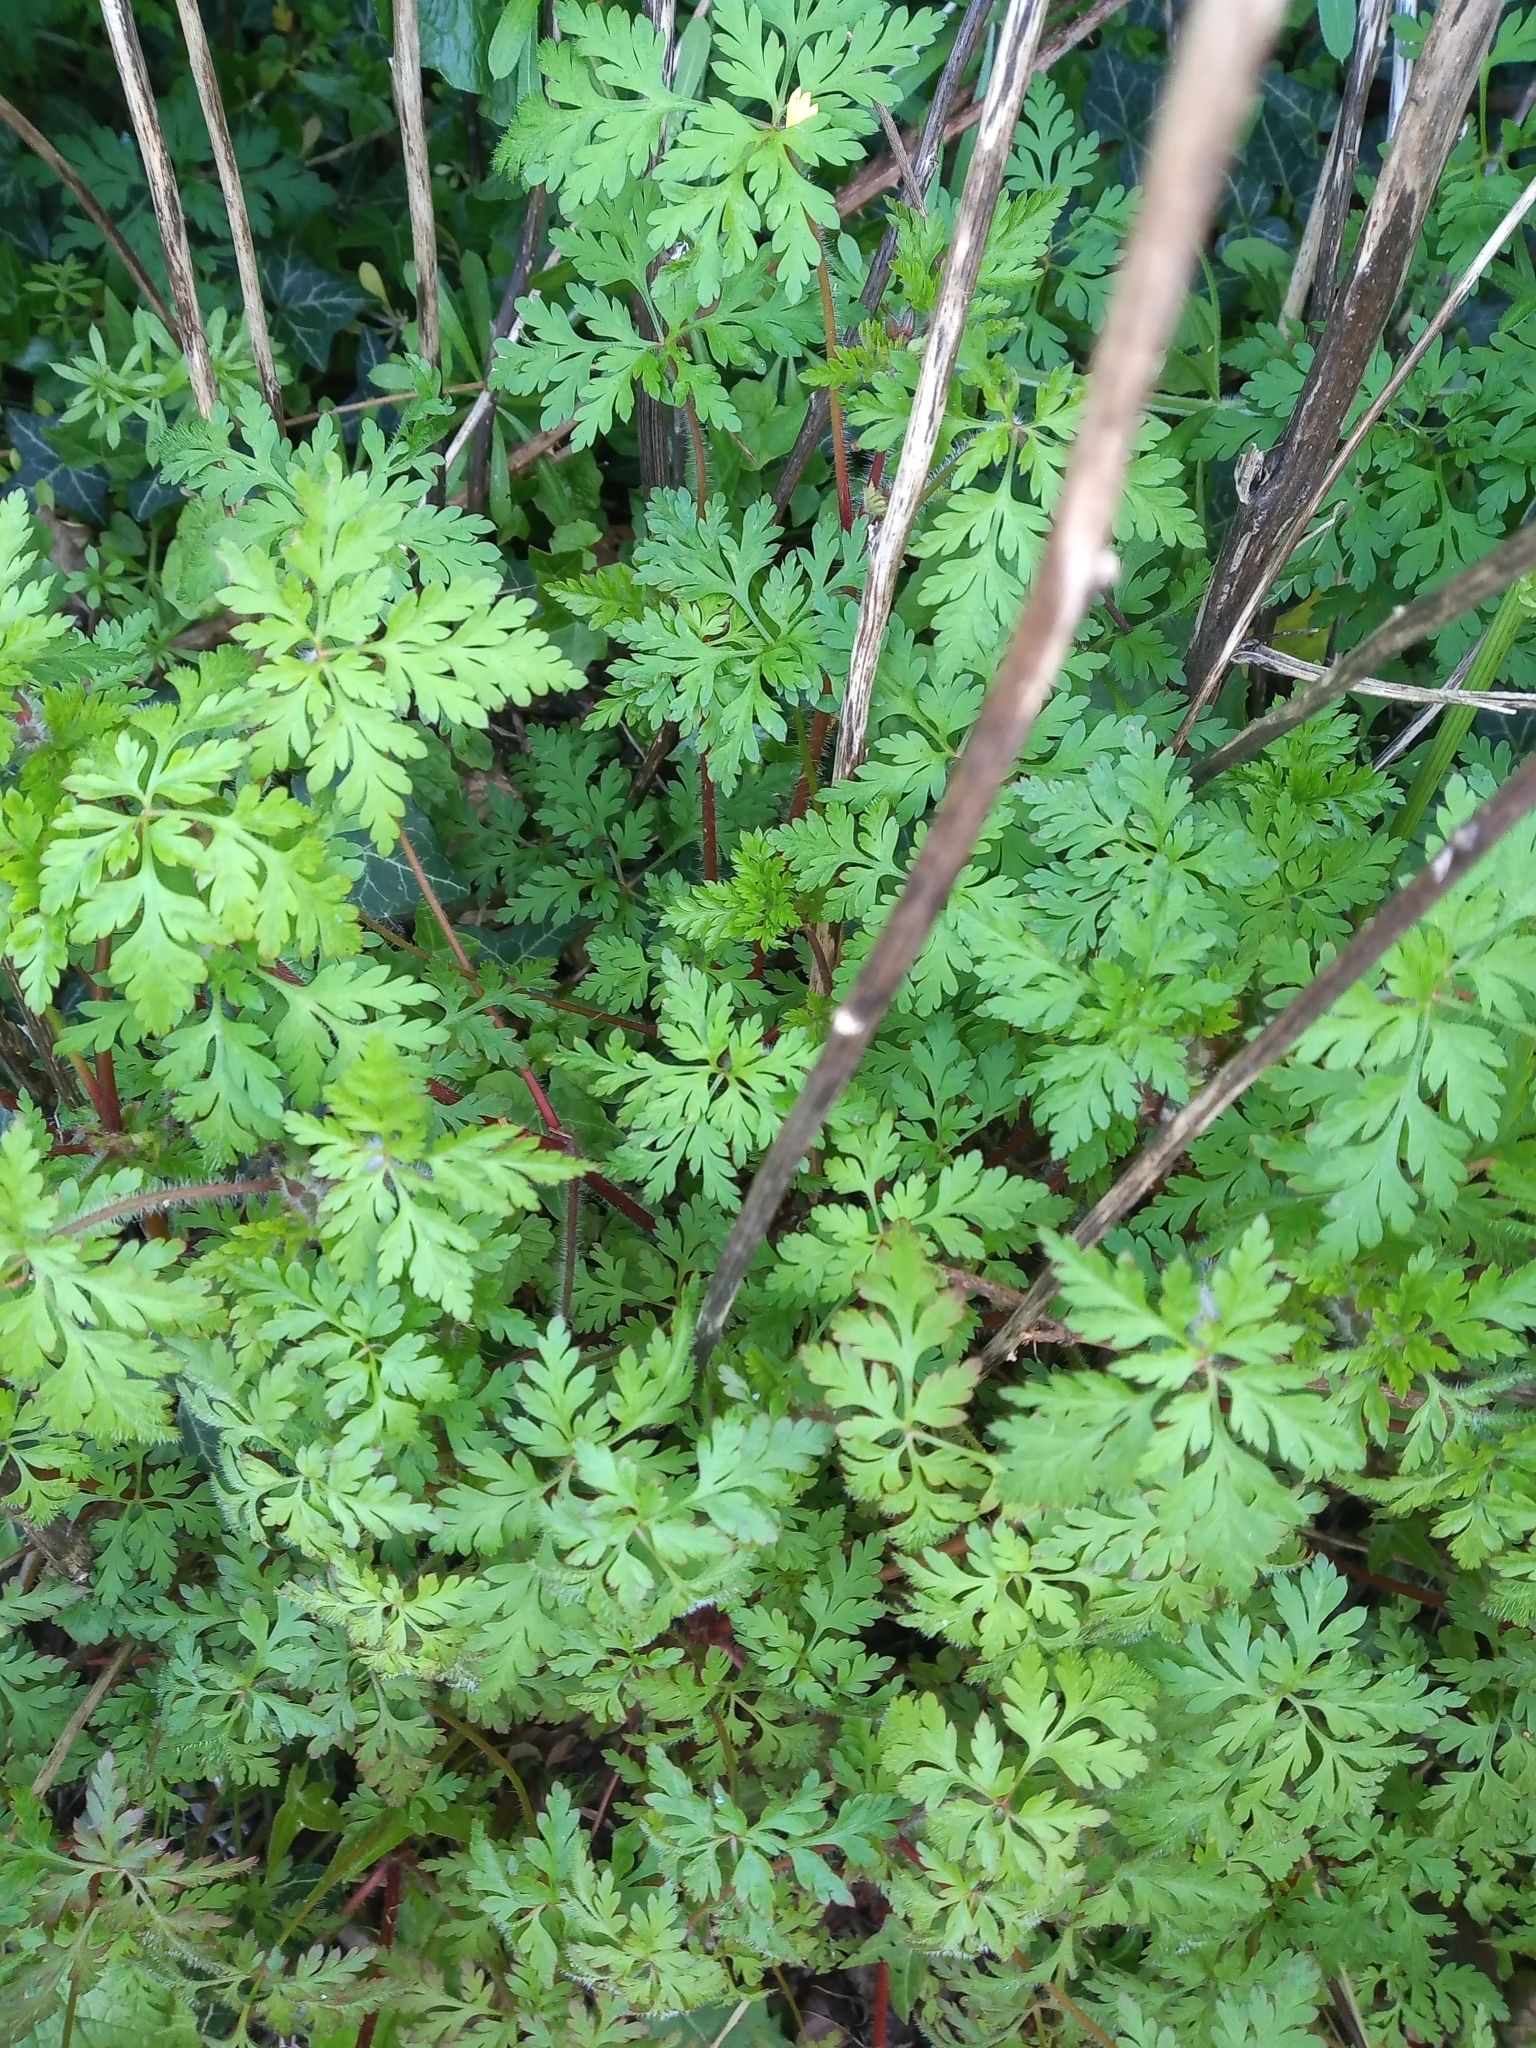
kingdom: Plantae
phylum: Tracheophyta
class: Magnoliopsida
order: Geraniales
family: Geraniaceae
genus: Geranium
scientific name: Geranium robertianum
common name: Herb-robert
